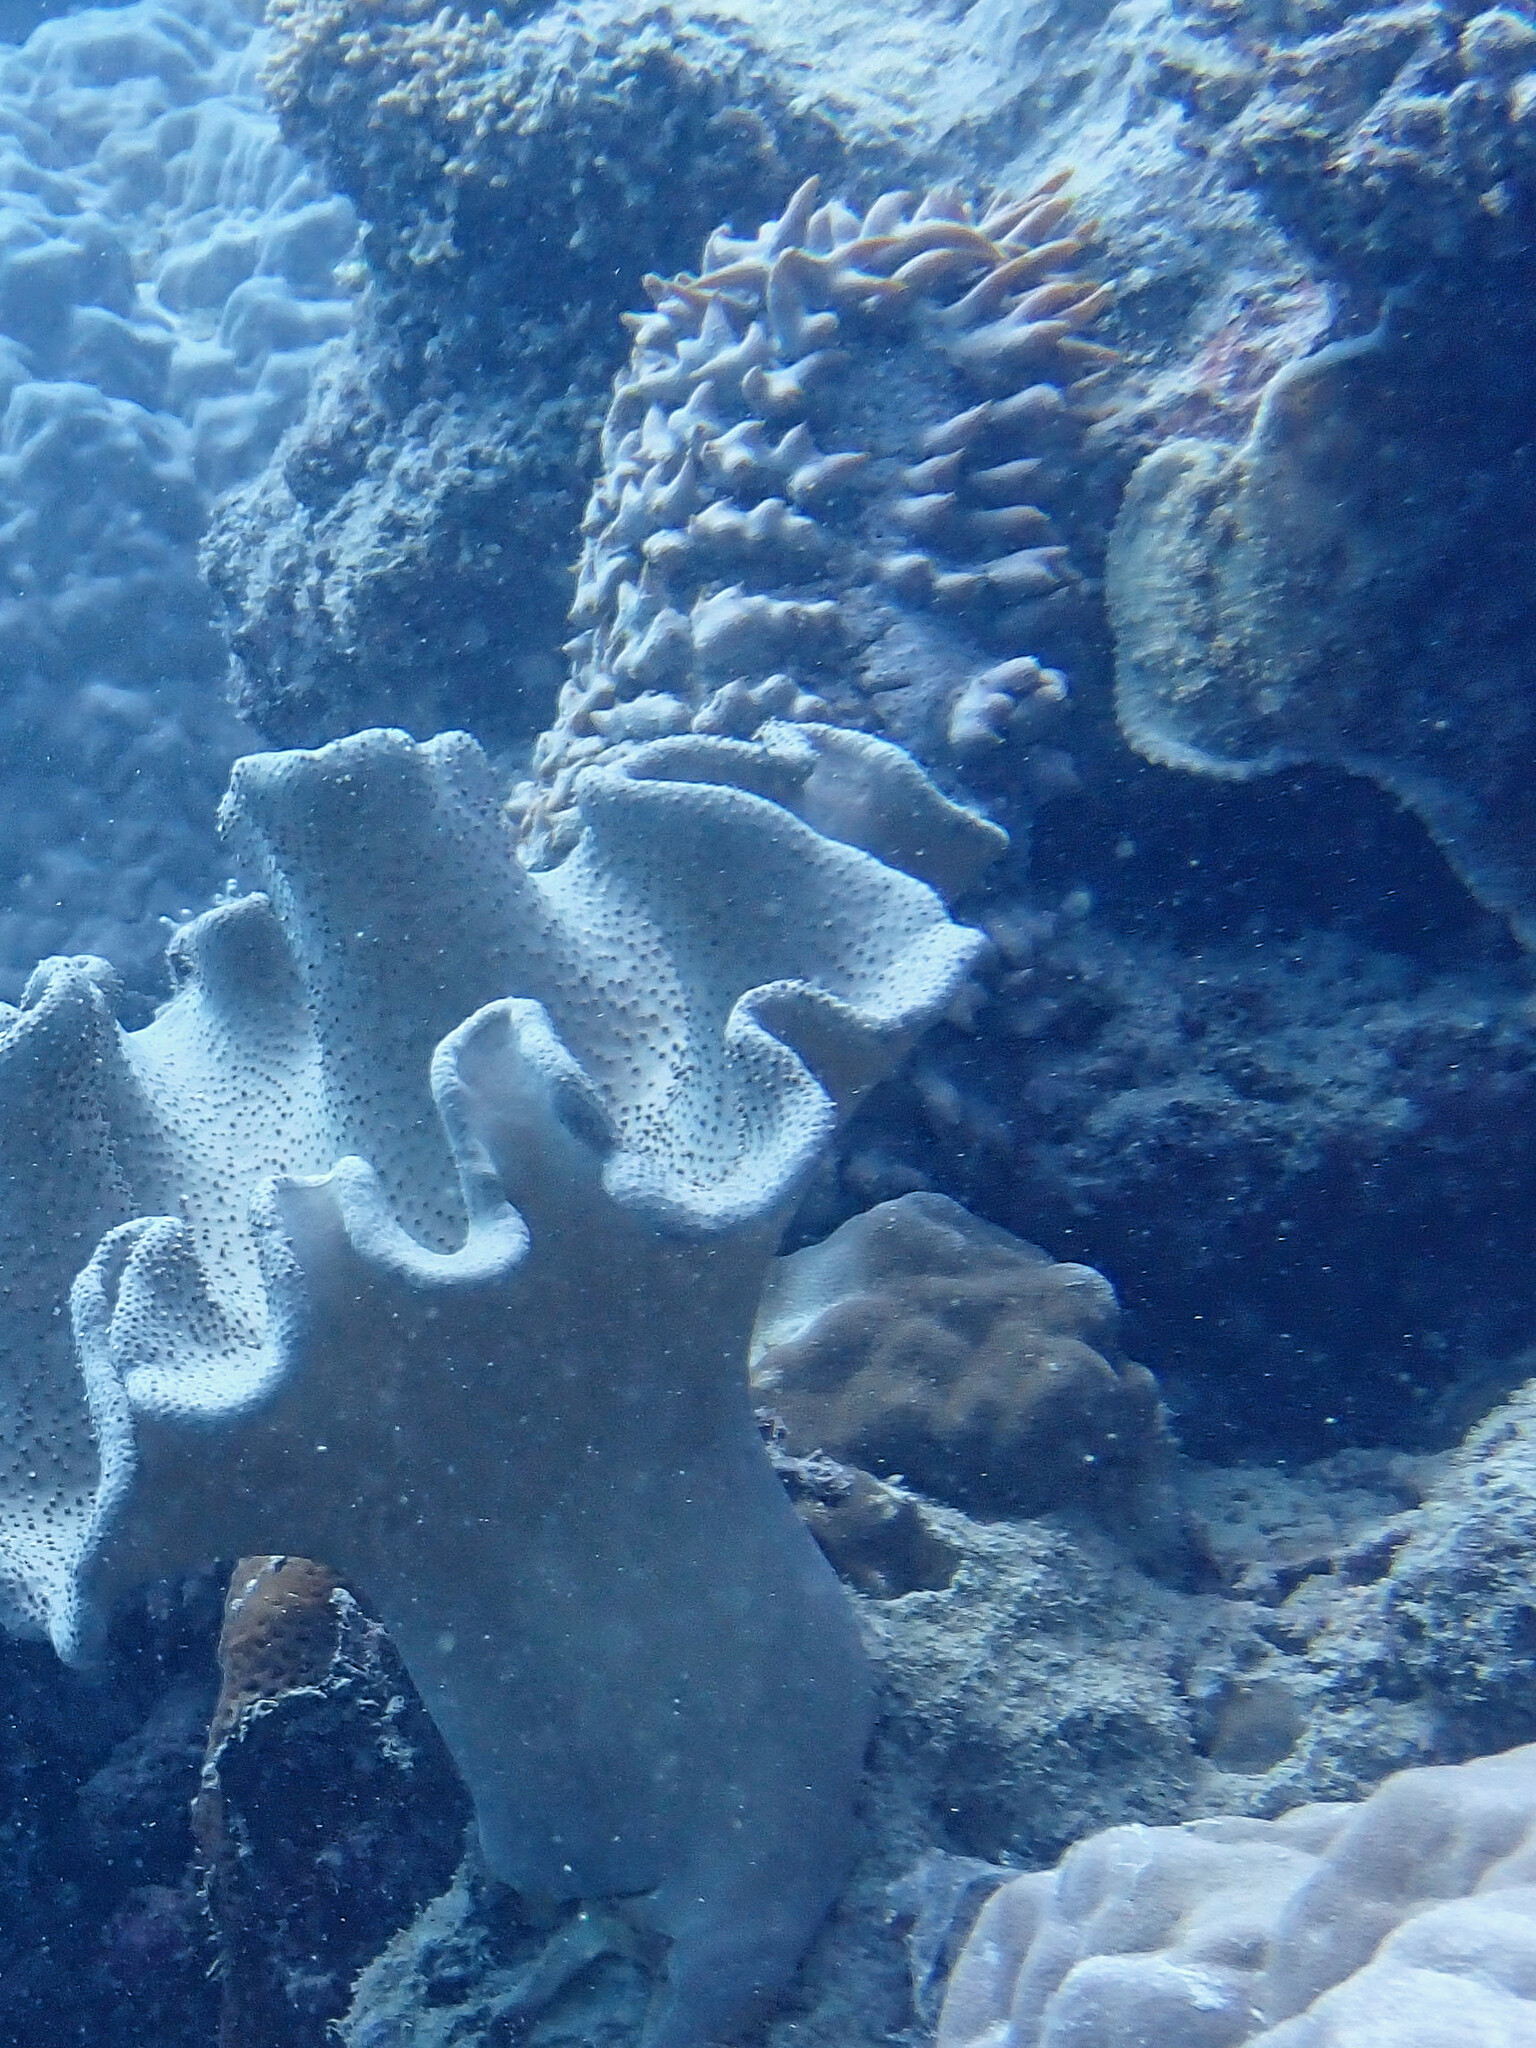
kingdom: Animalia
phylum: Echinodermata
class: Holothuroidea
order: Synallactida
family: Stichopodidae
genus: Thelenota
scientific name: Thelenota ananas
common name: Prickly redfish
